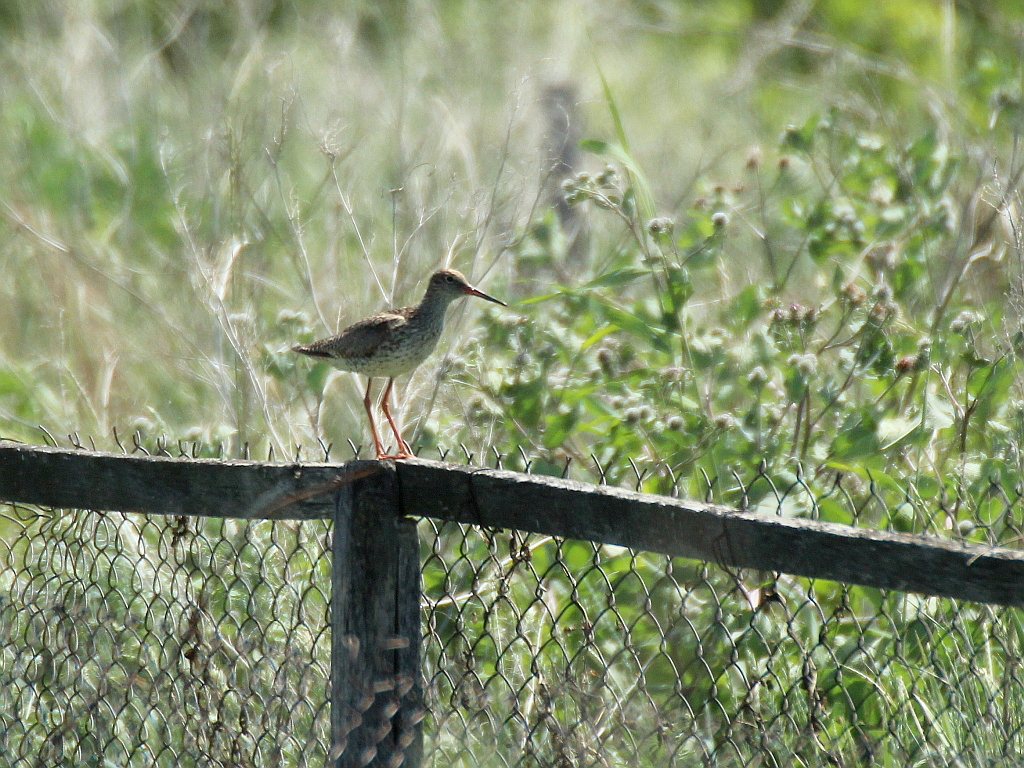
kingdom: Animalia
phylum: Chordata
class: Aves
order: Charadriiformes
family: Scolopacidae
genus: Tringa
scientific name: Tringa totanus
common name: Common redshank
